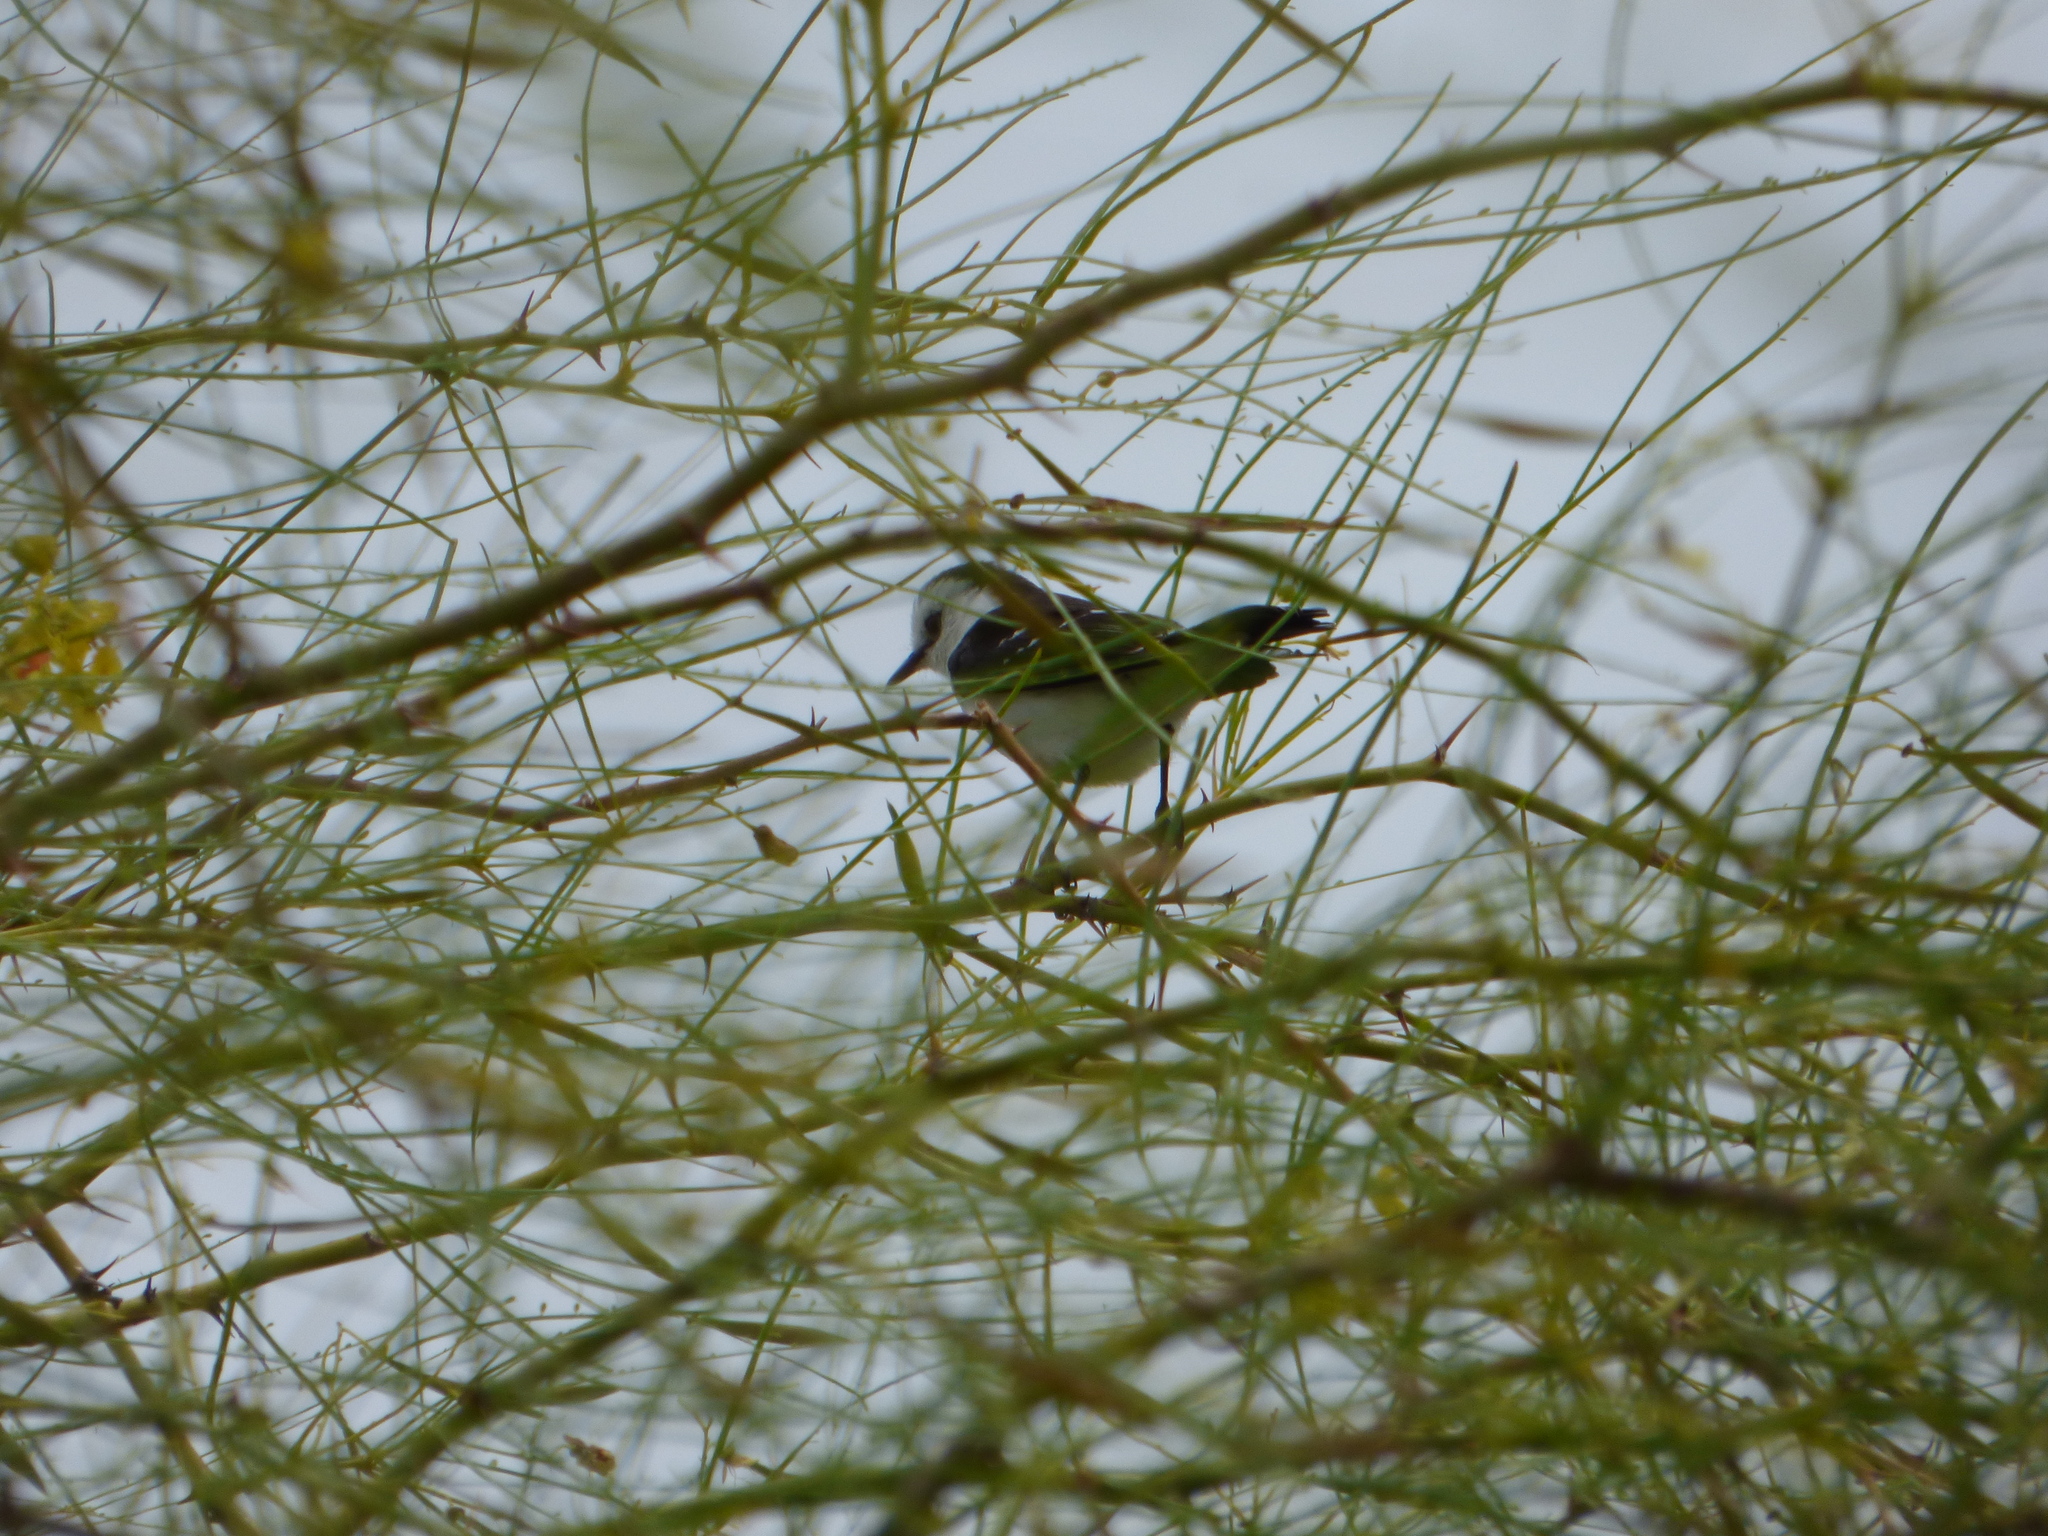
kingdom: Animalia
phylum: Chordata
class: Aves
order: Passeriformes
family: Tyrannidae
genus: Fluvicola
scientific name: Fluvicola pica
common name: Pied water-tyrant
